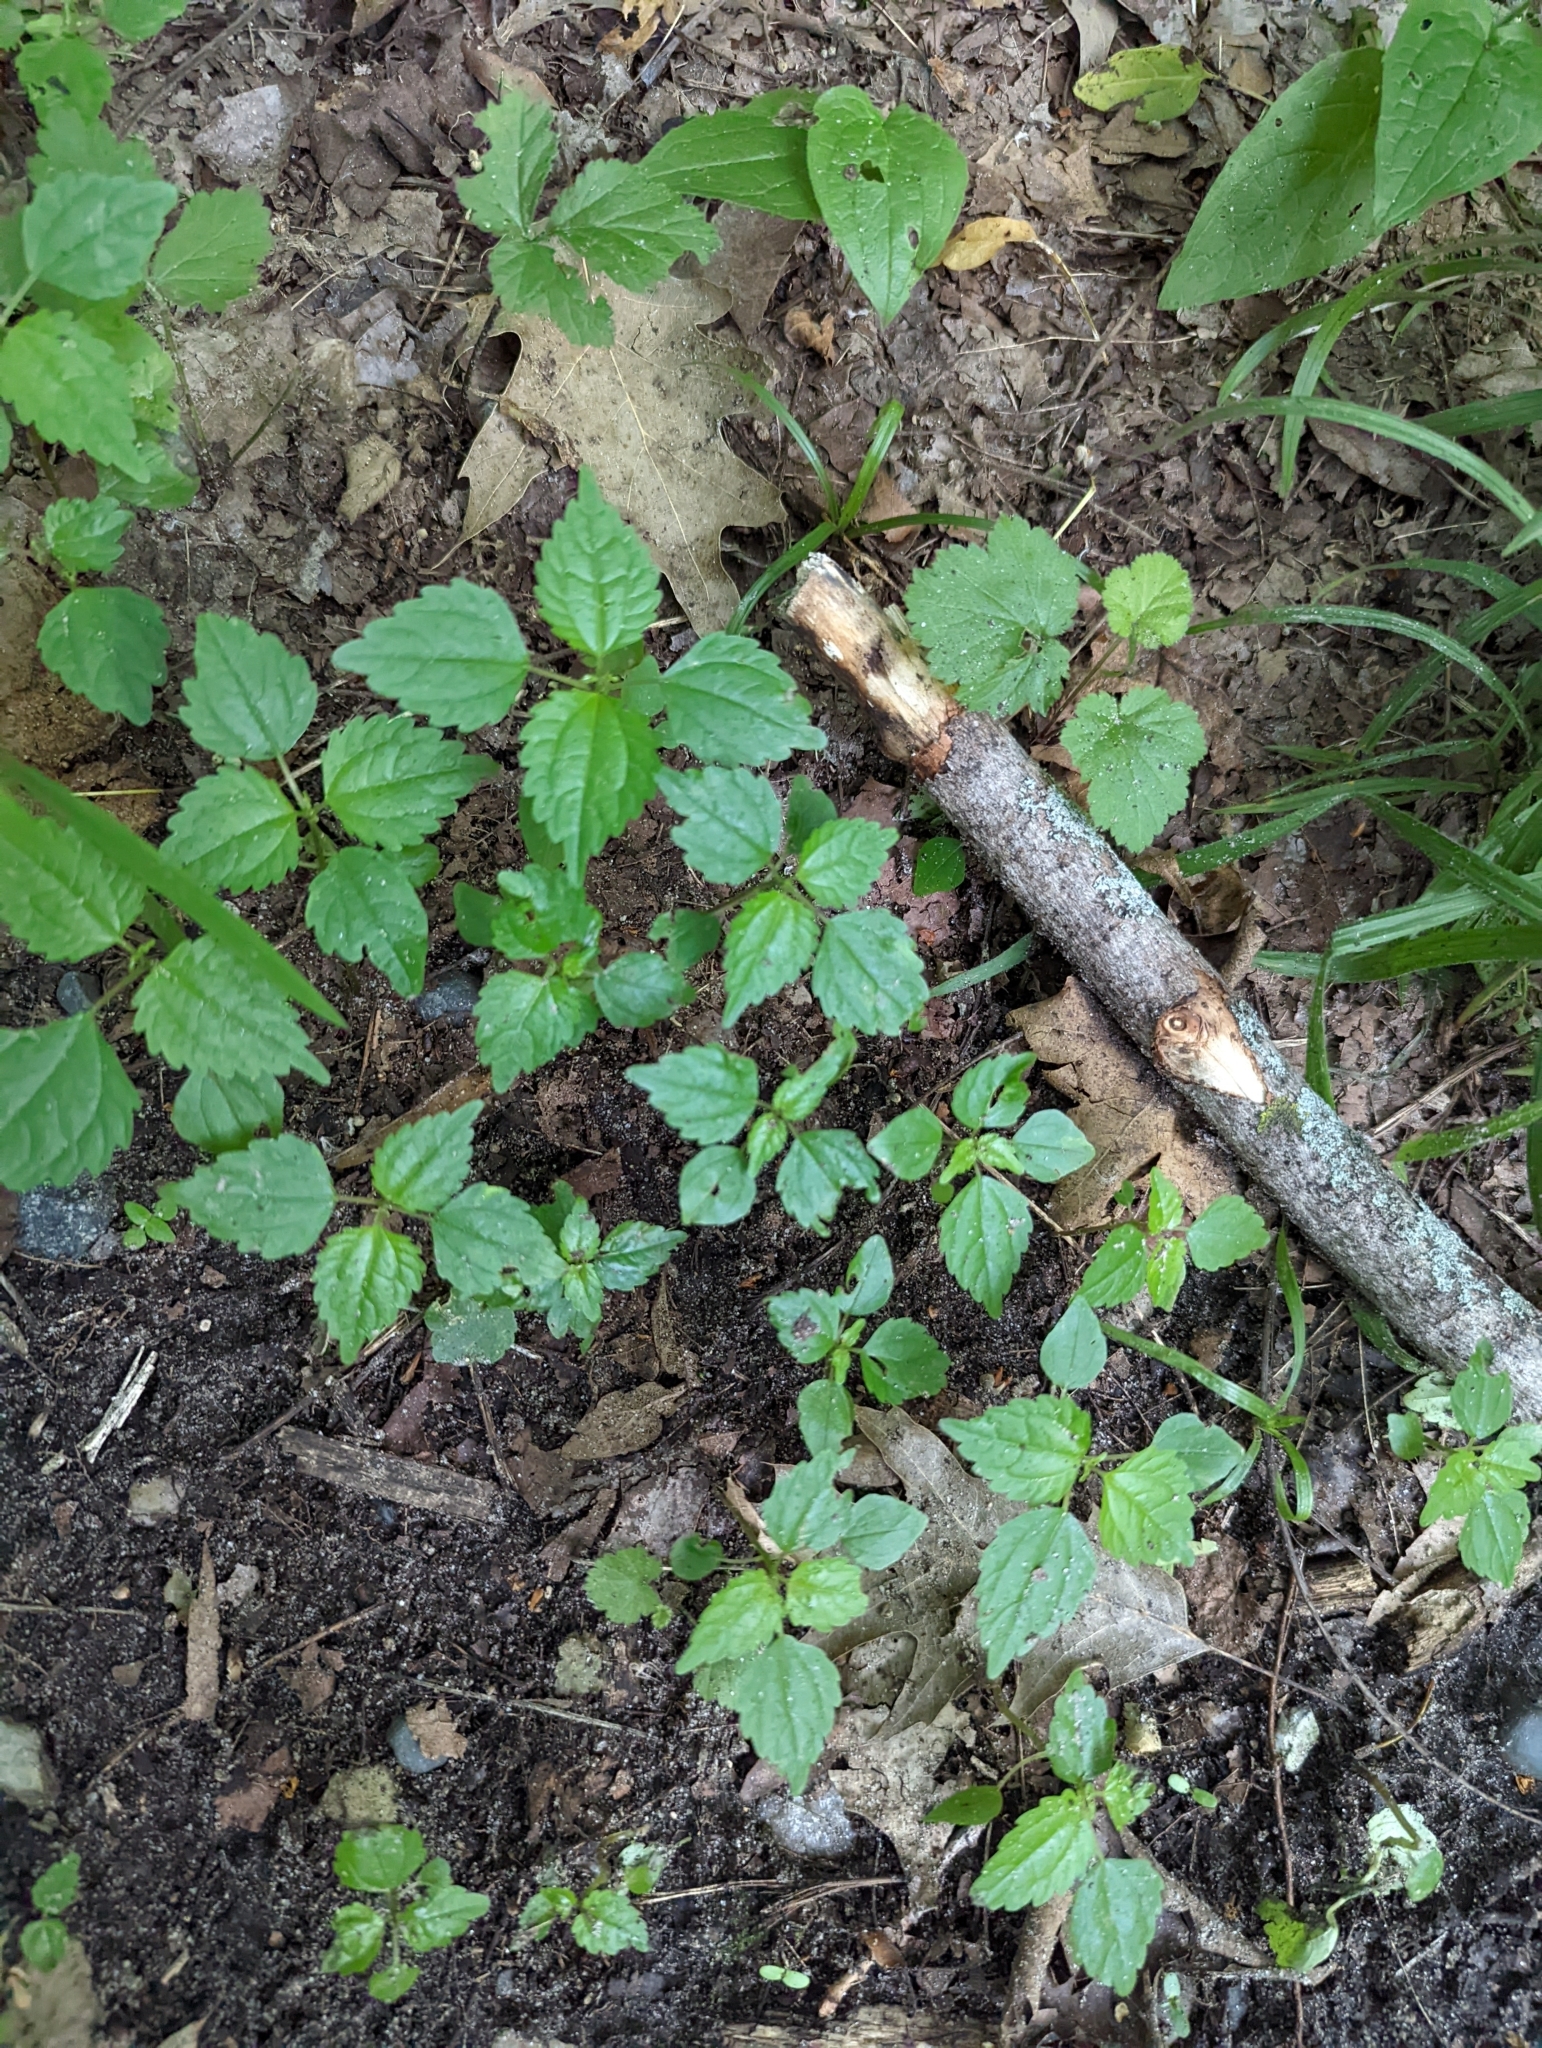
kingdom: Plantae
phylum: Tracheophyta
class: Magnoliopsida
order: Rosales
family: Urticaceae
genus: Pilea
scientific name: Pilea pumila
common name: Clearweed
